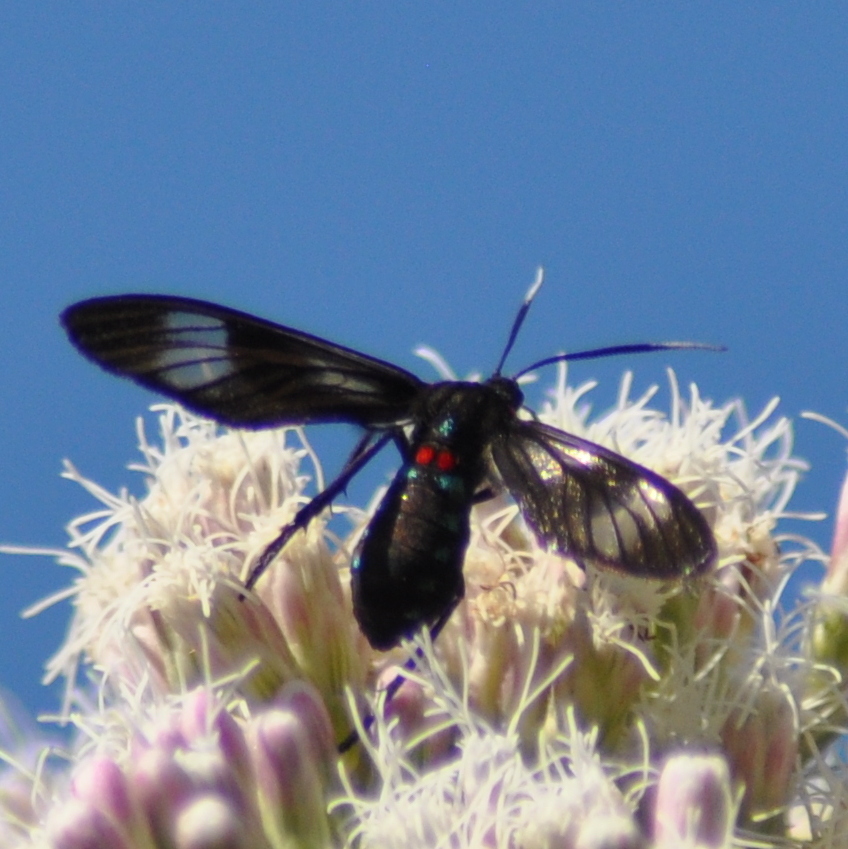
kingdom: Animalia
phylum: Arthropoda
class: Insecta
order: Lepidoptera
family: Erebidae
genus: Phoeniostacta
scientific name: Phoeniostacta haematobasis
